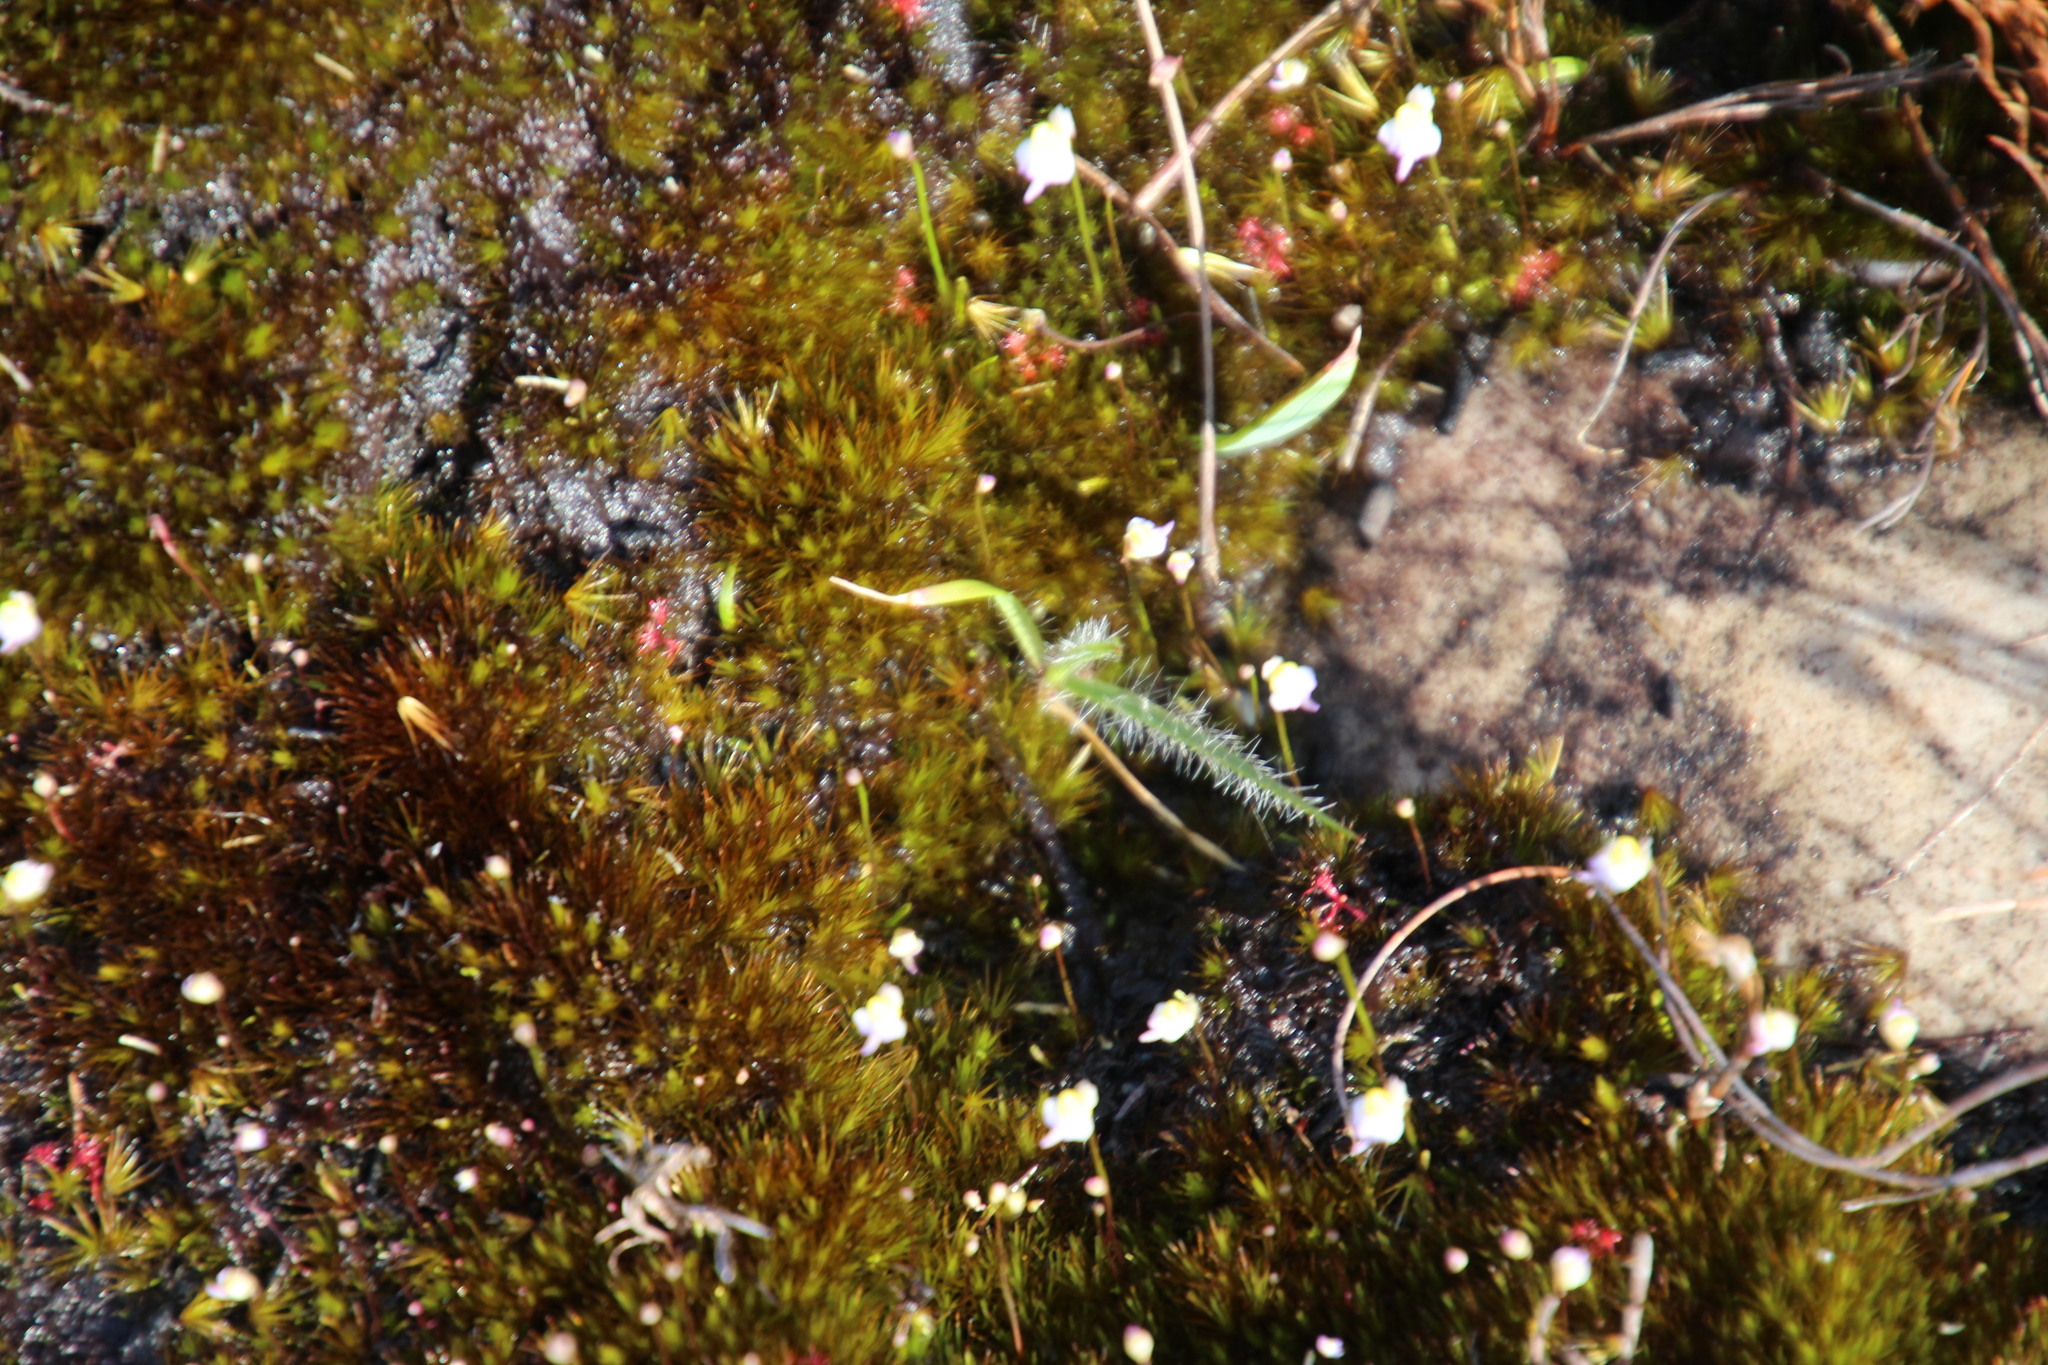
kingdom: Plantae
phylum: Tracheophyta
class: Magnoliopsida
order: Lamiales
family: Lentibulariaceae
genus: Utricularia
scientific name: Utricularia bisquamata
